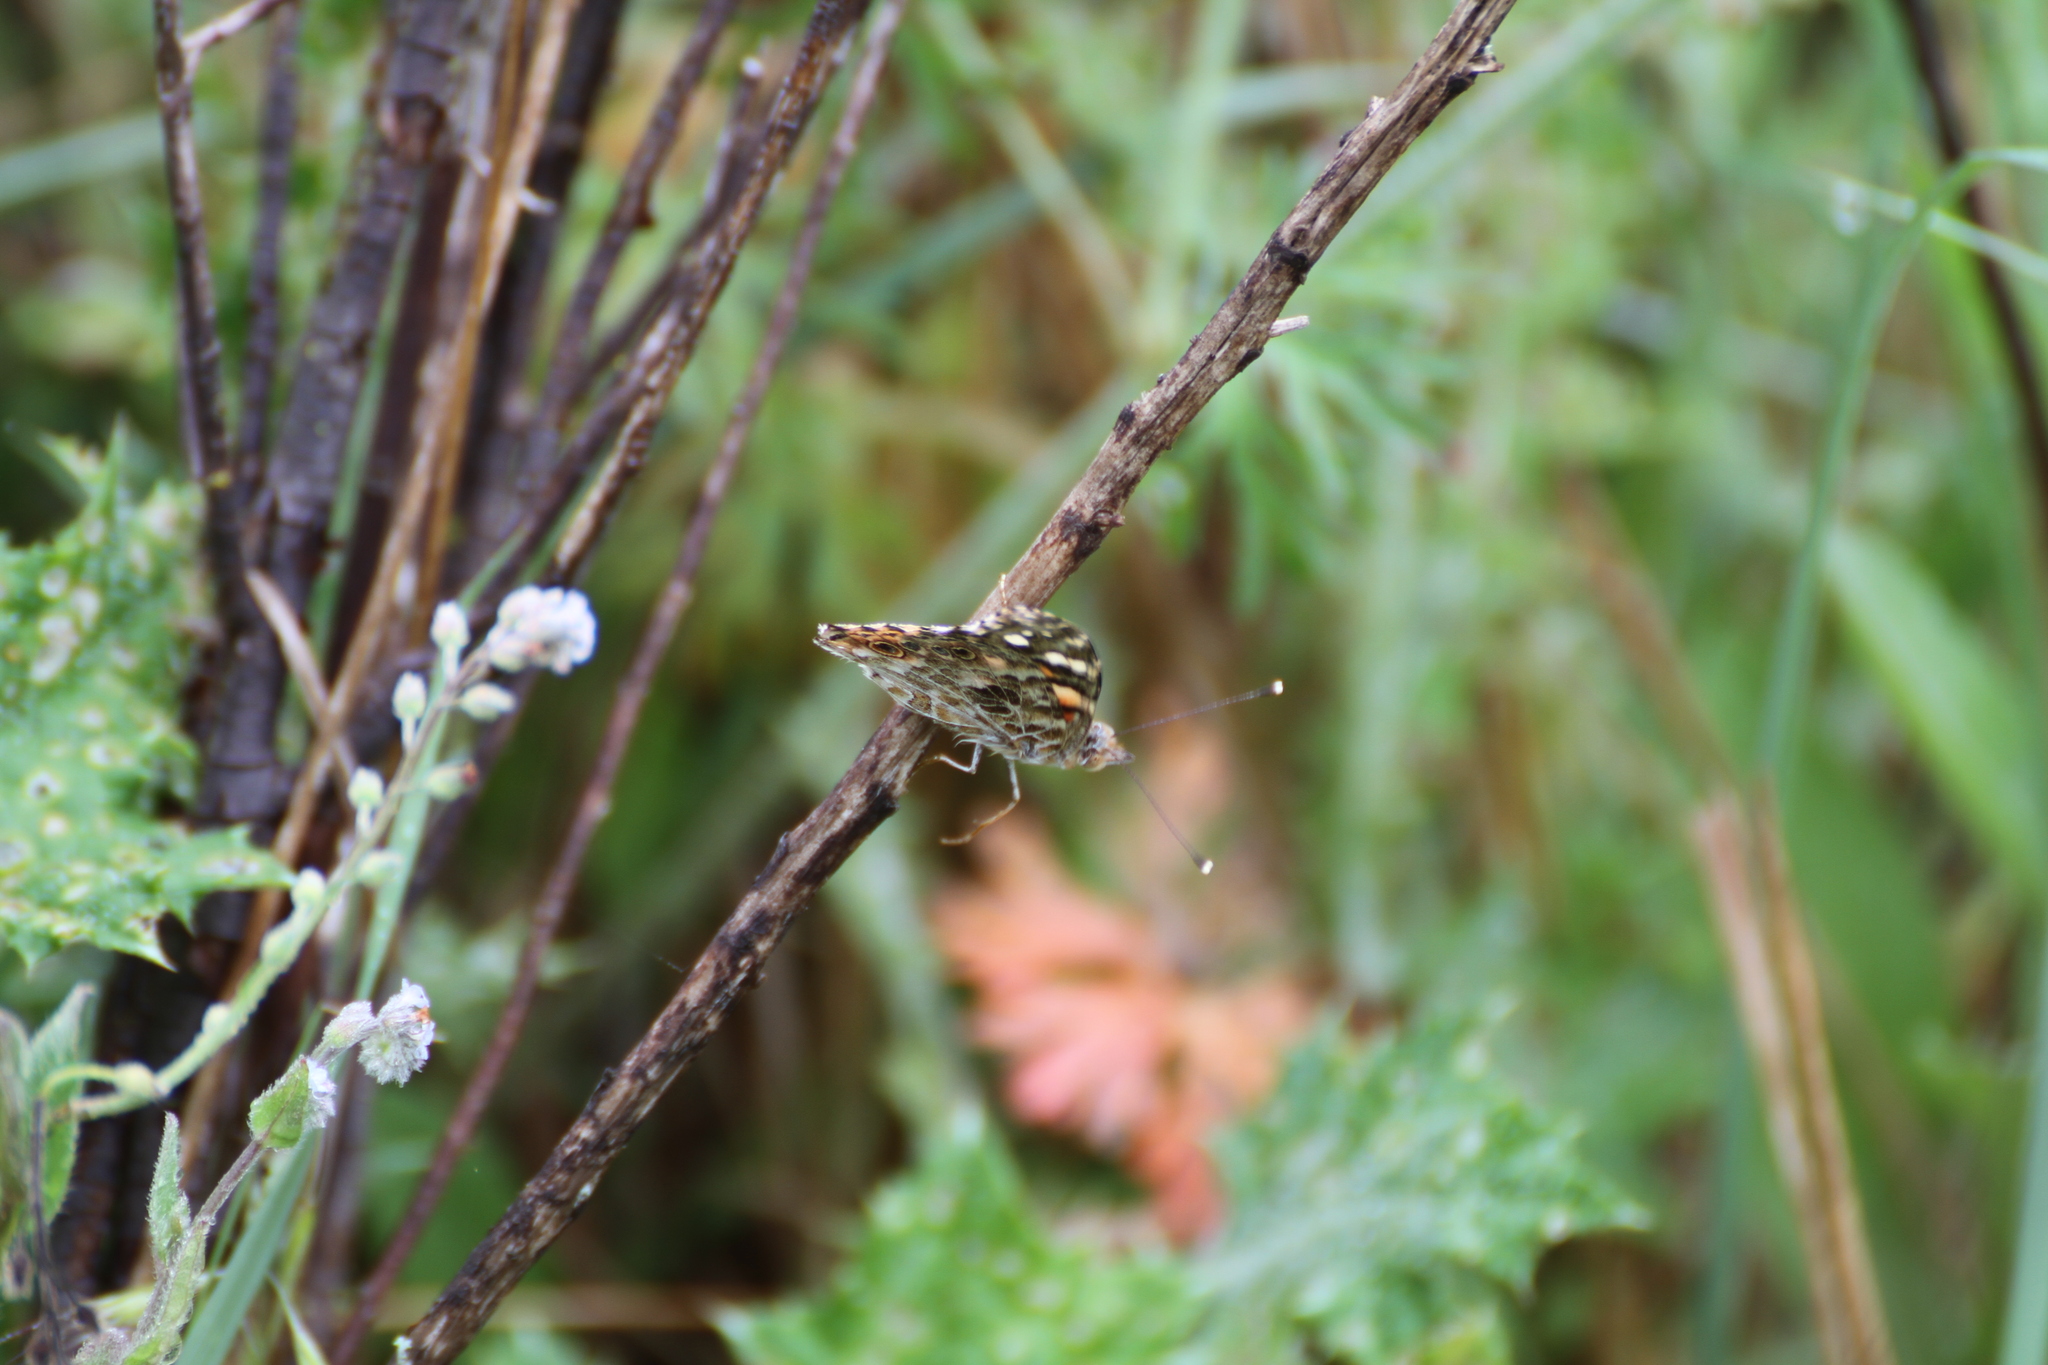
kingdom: Animalia
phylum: Arthropoda
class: Insecta
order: Lepidoptera
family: Nymphalidae
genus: Vanessa
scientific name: Vanessa cardui
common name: Painted lady
